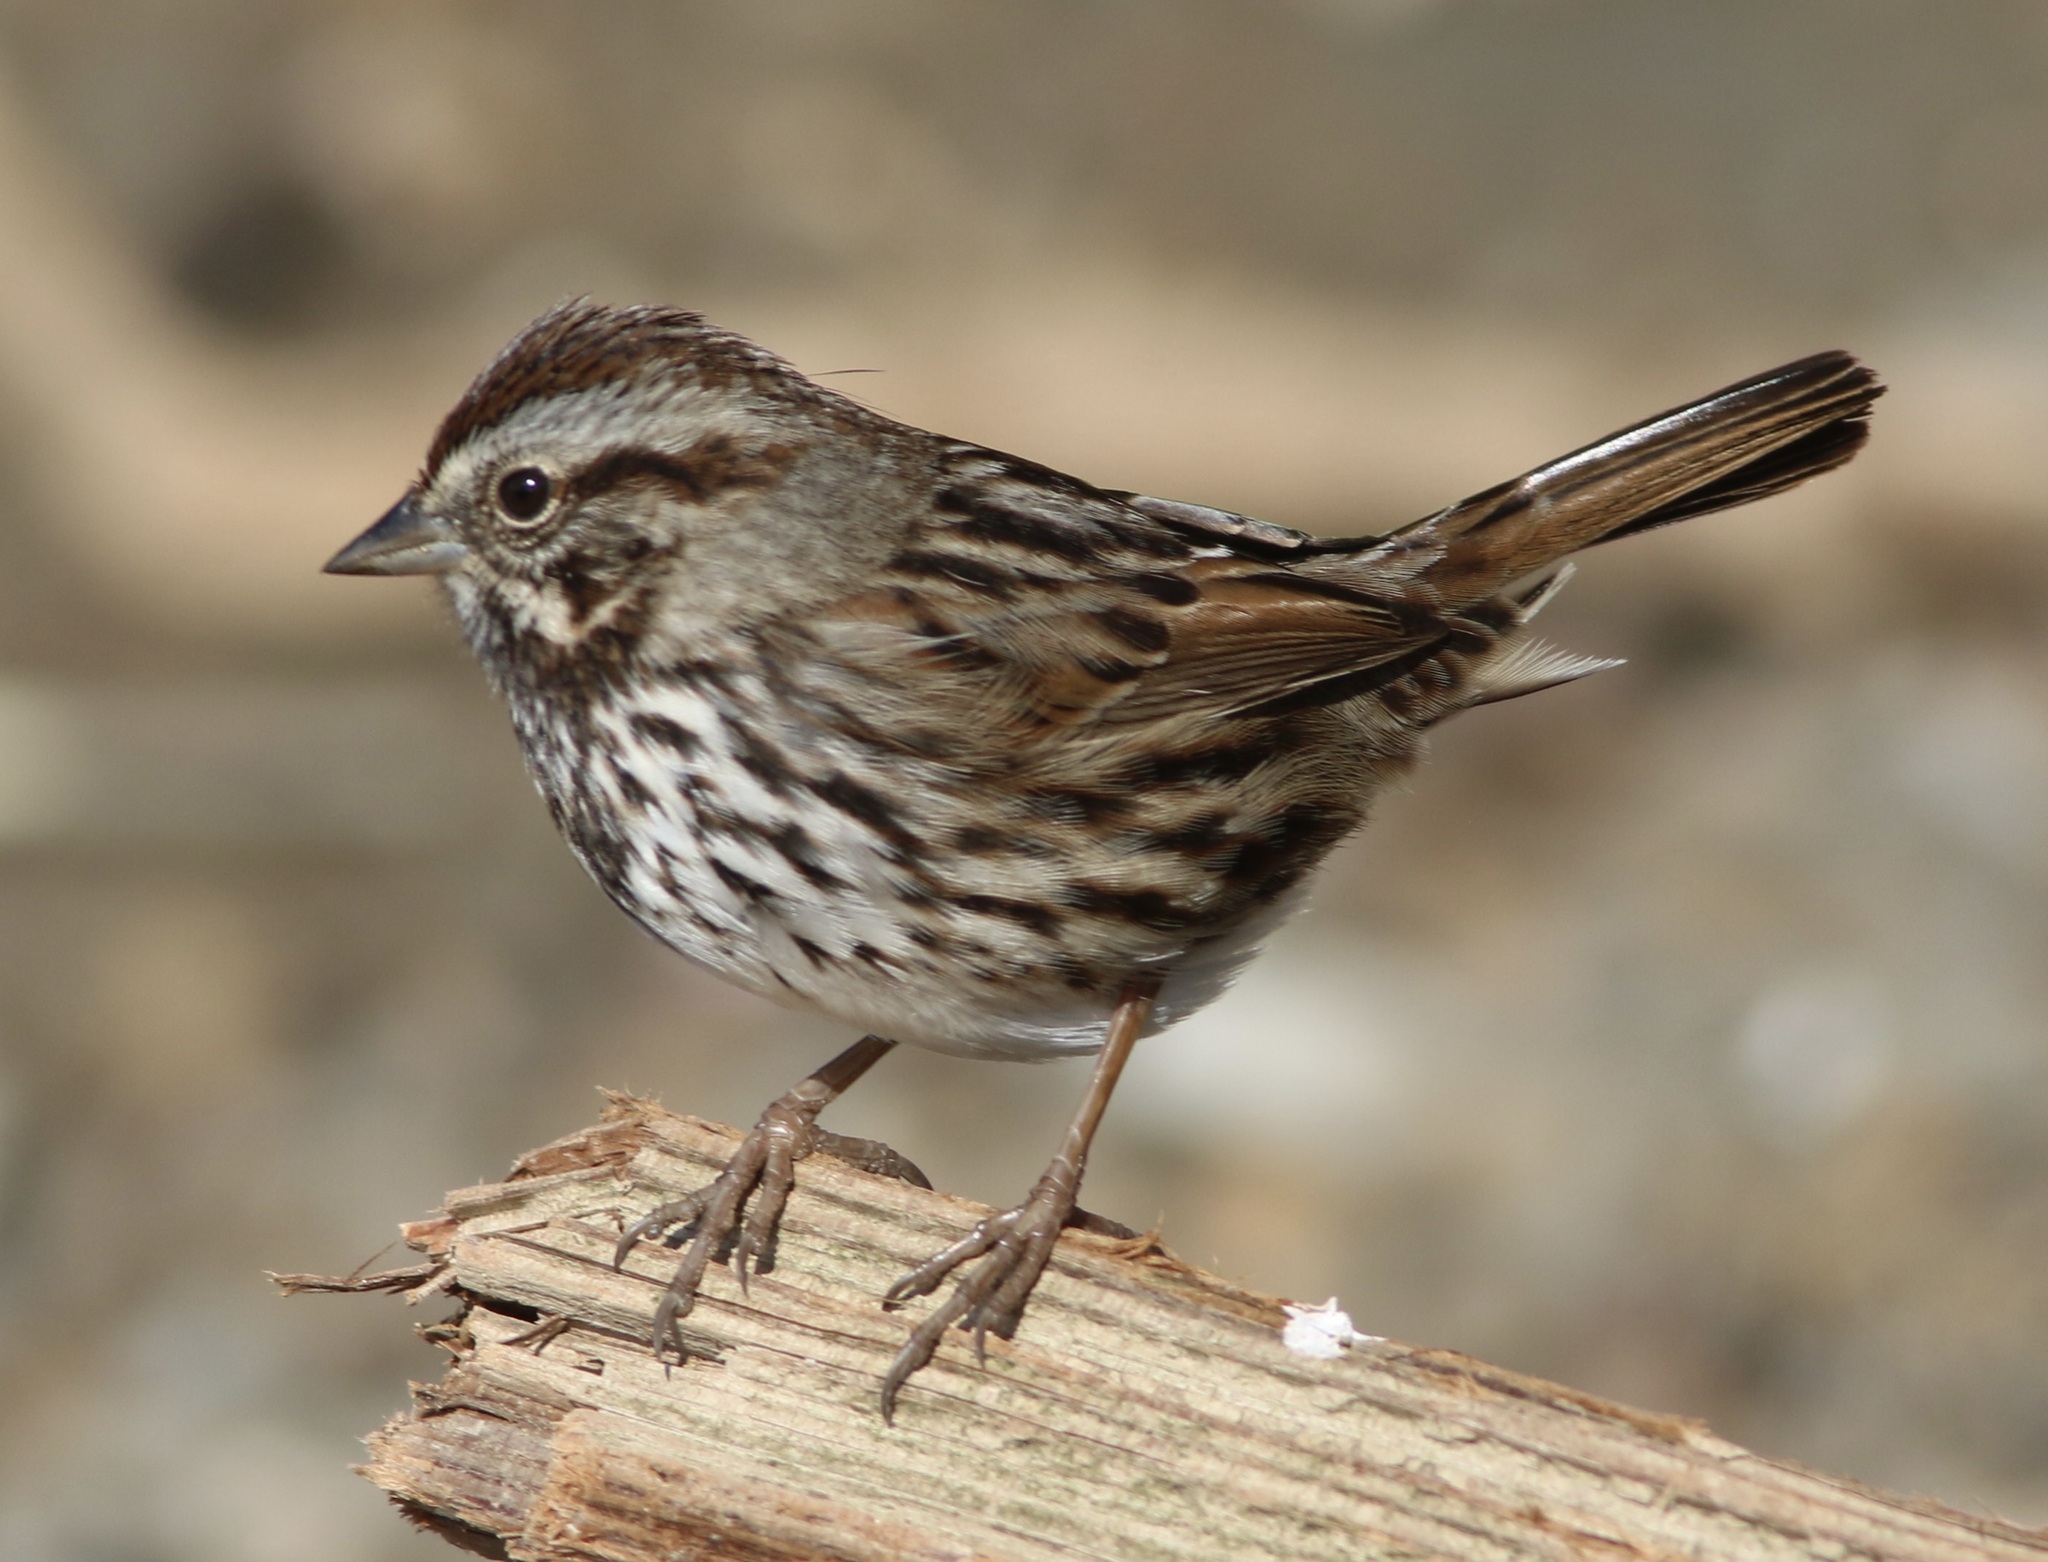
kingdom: Animalia
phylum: Chordata
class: Aves
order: Passeriformes
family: Passerellidae
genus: Melospiza
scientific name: Melospiza melodia
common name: Song sparrow
